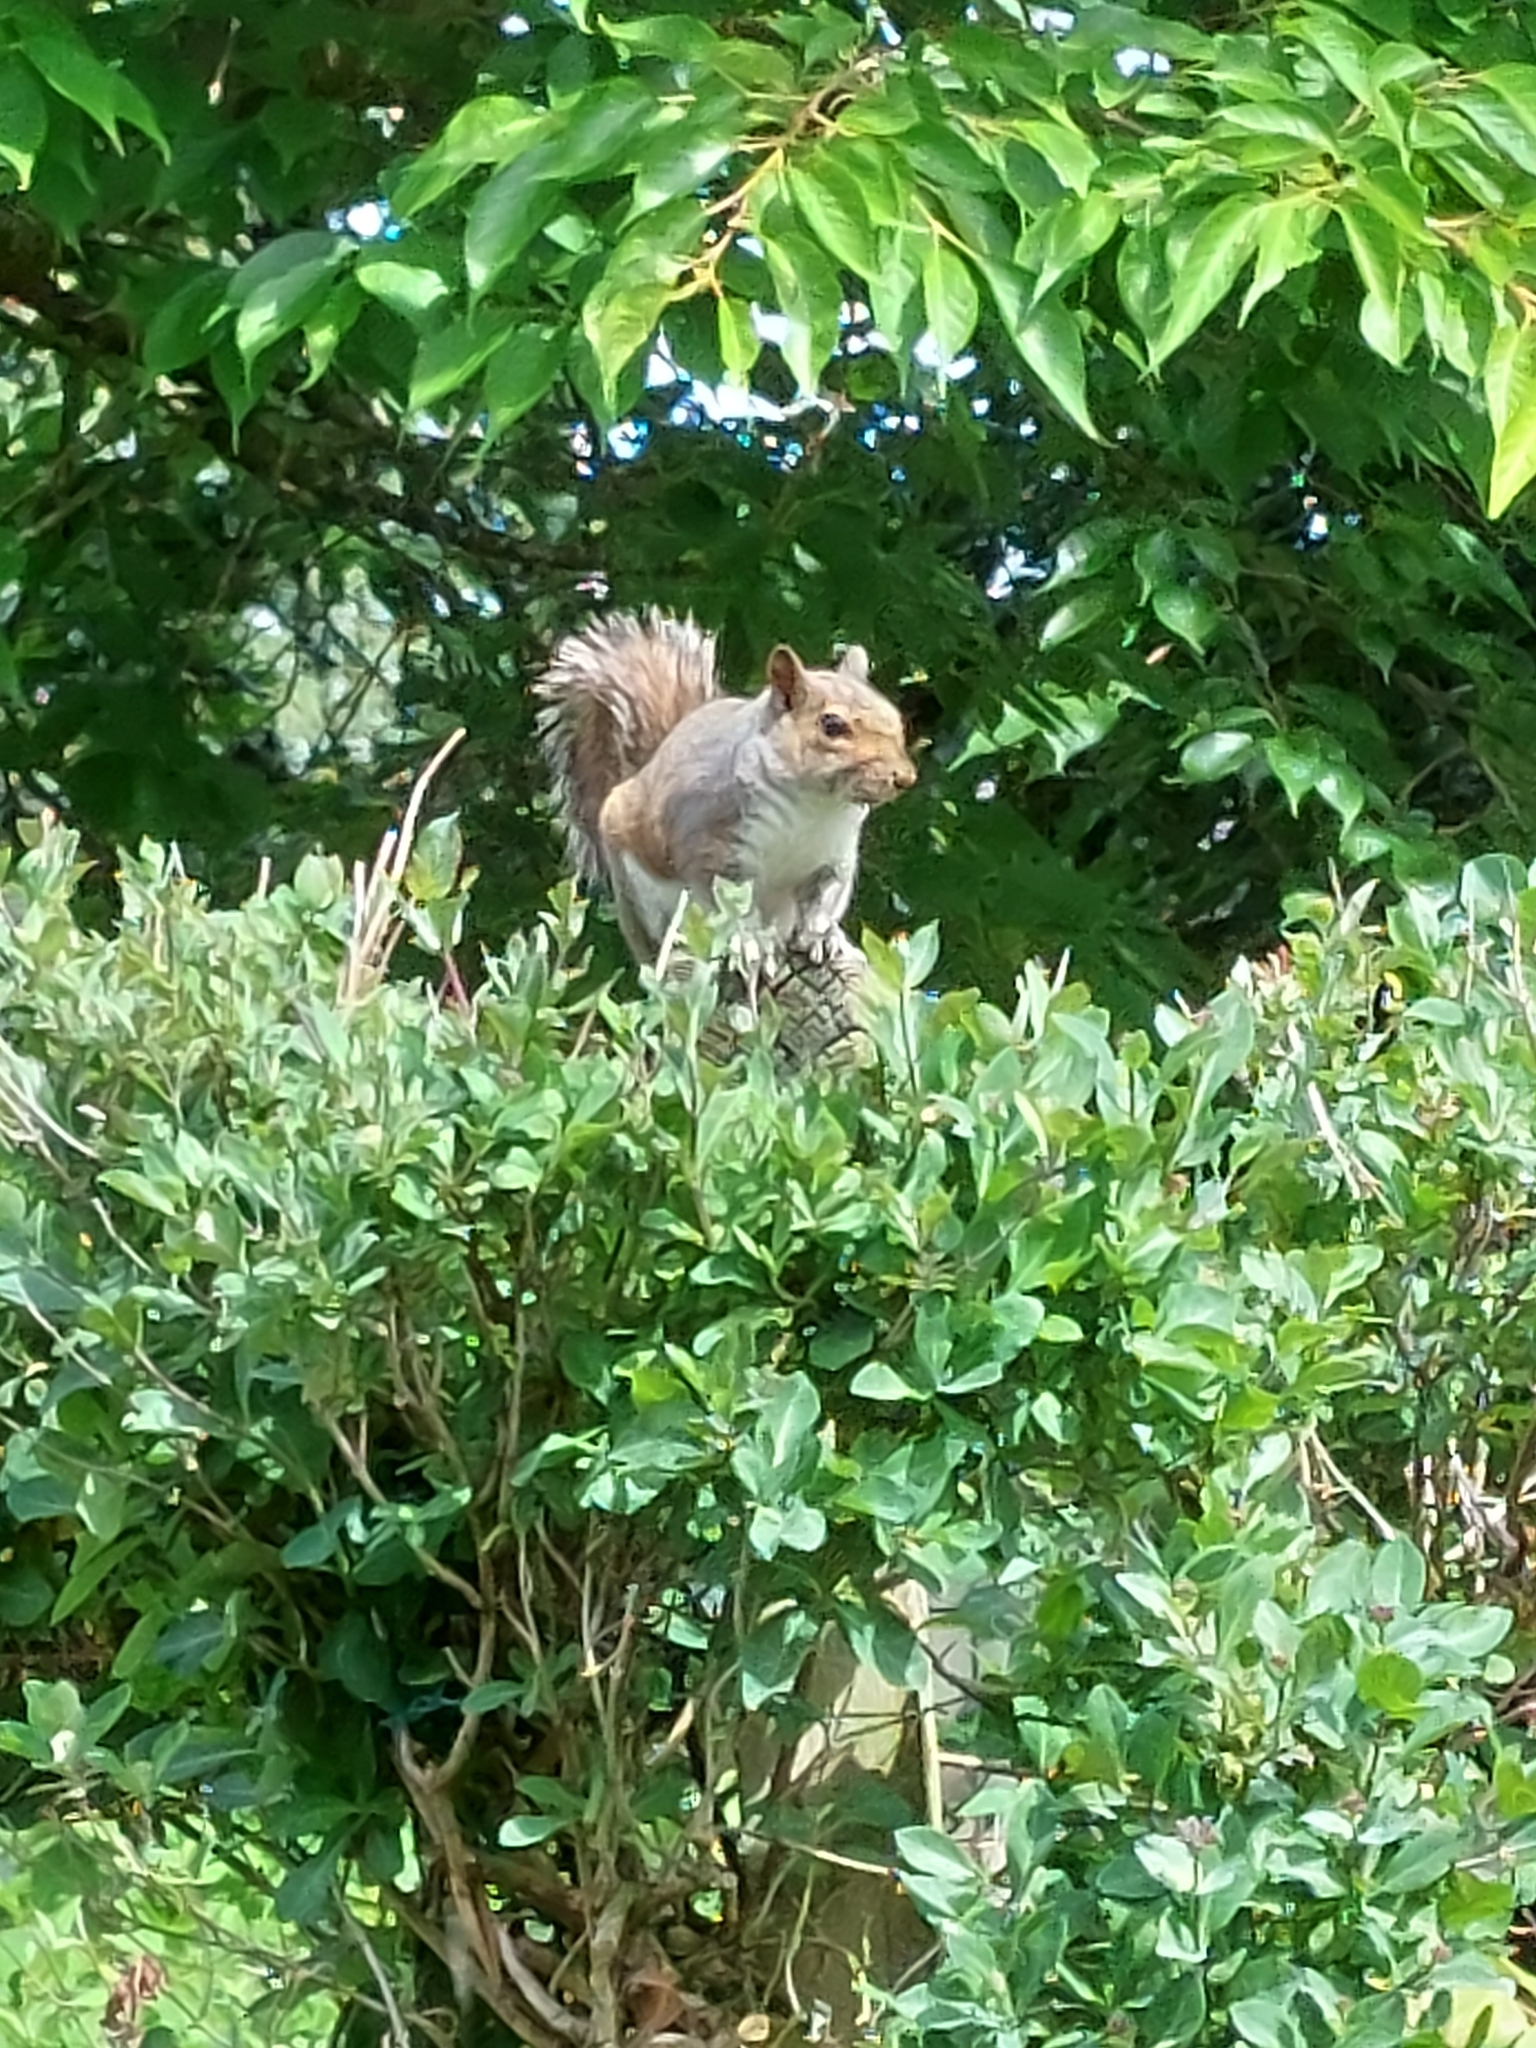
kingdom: Animalia
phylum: Chordata
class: Mammalia
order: Rodentia
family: Sciuridae
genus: Sciurus
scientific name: Sciurus carolinensis
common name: Eastern gray squirrel
